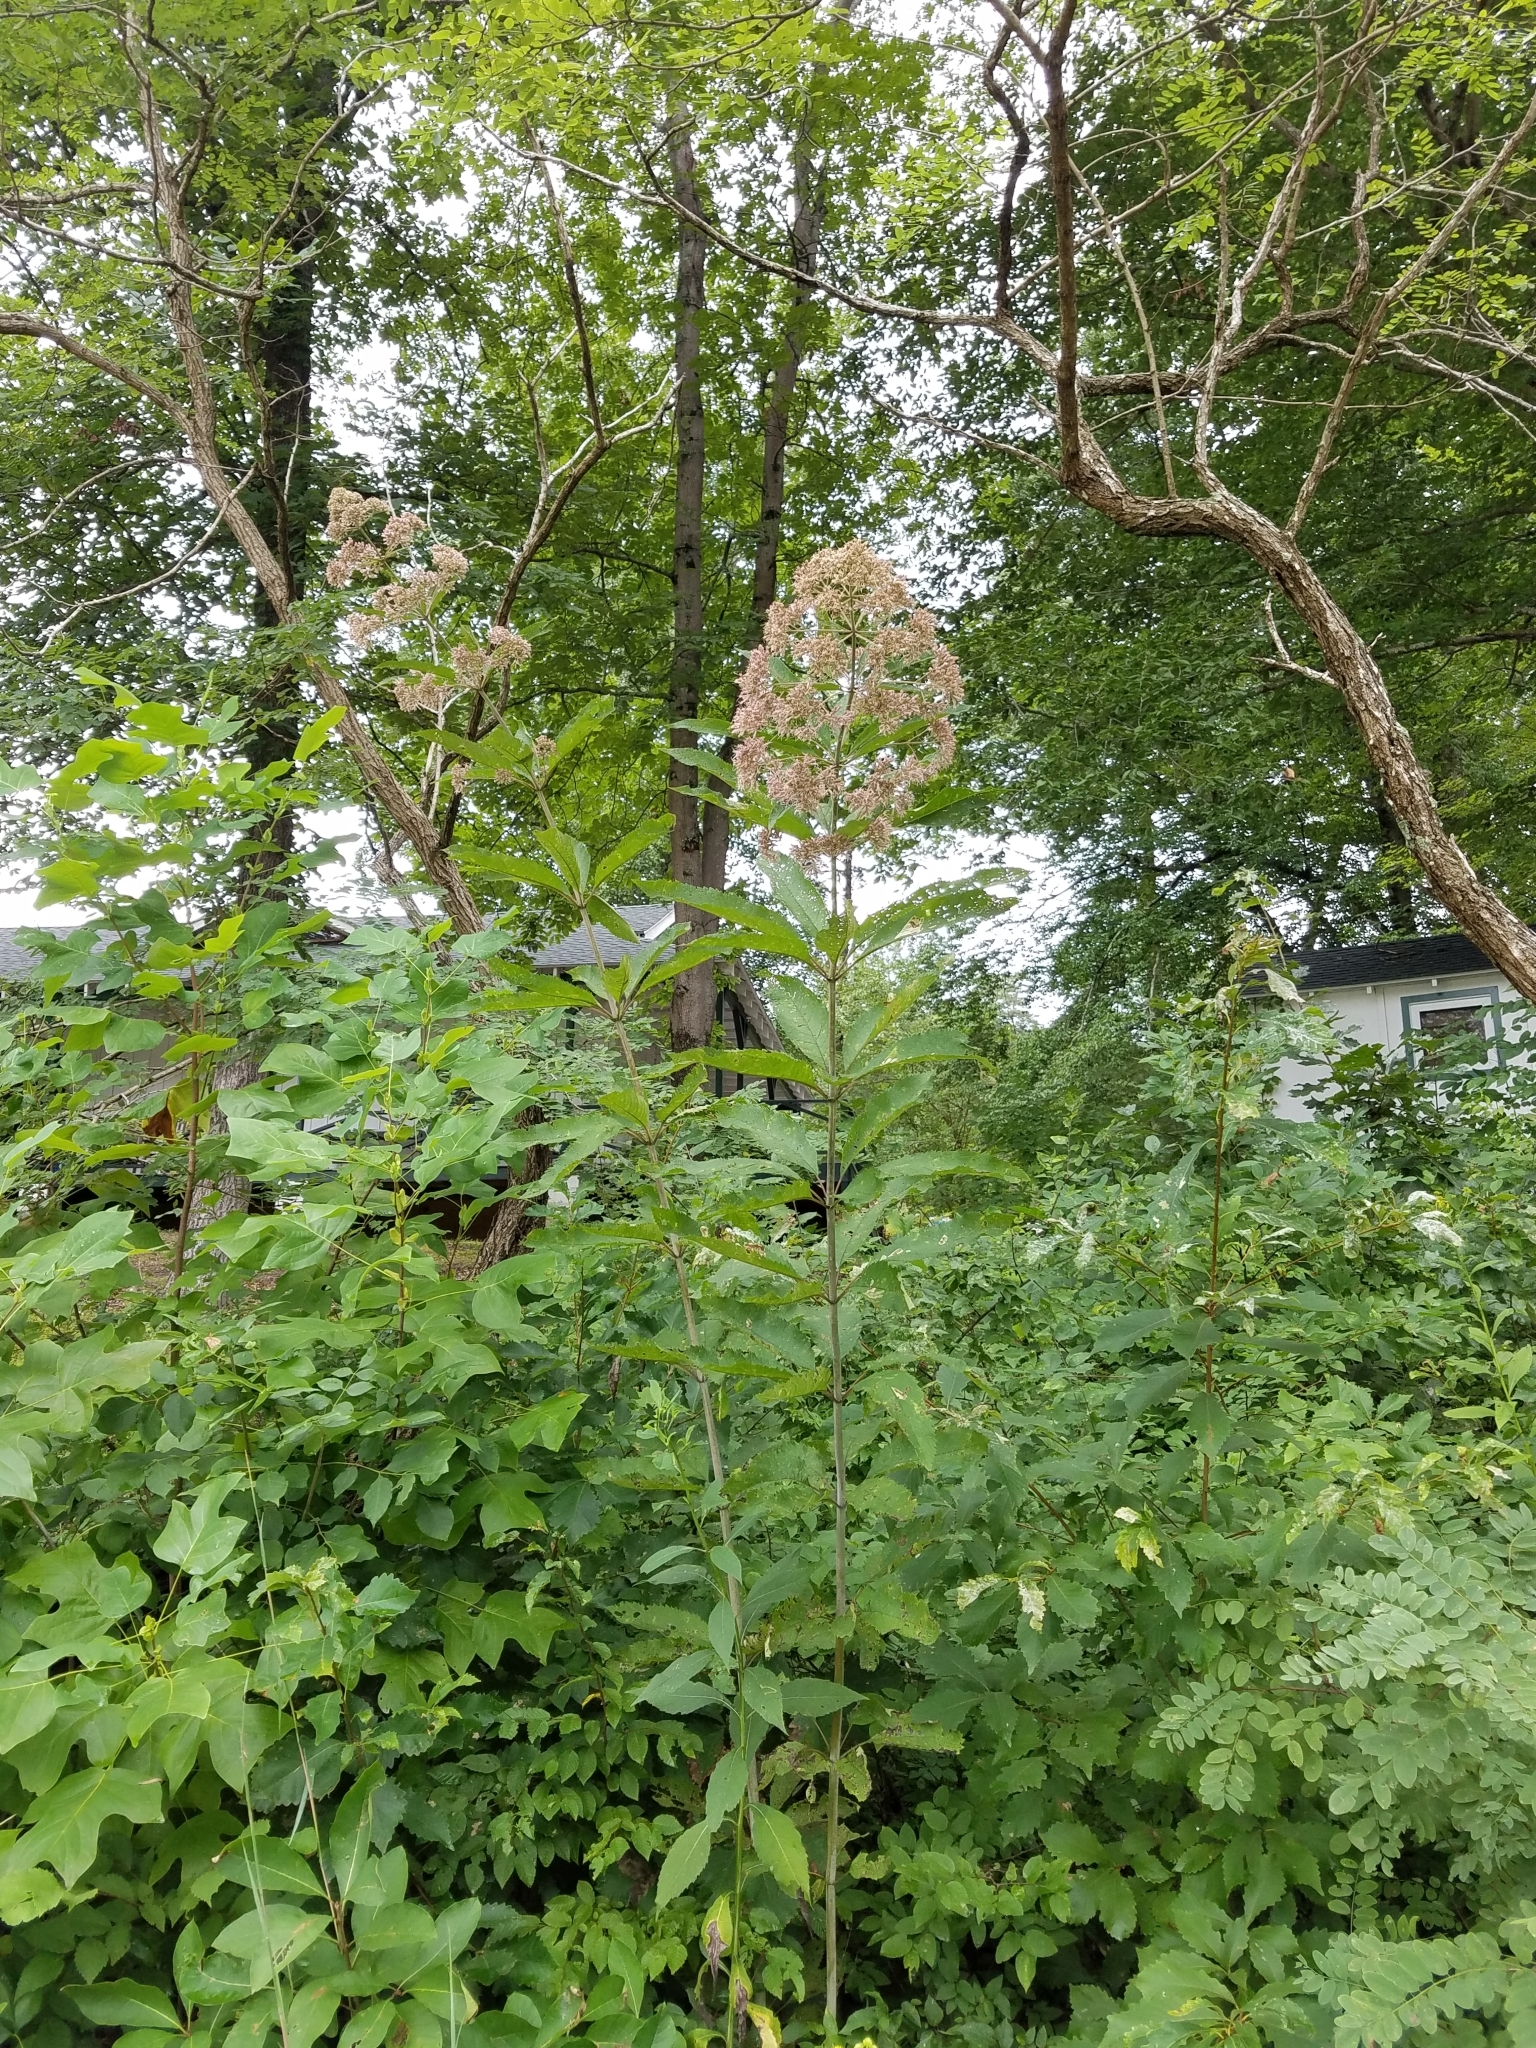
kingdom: Plantae
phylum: Tracheophyta
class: Magnoliopsida
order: Asterales
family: Asteraceae
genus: Eutrochium
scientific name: Eutrochium fistulosum
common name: Trumpetweed
